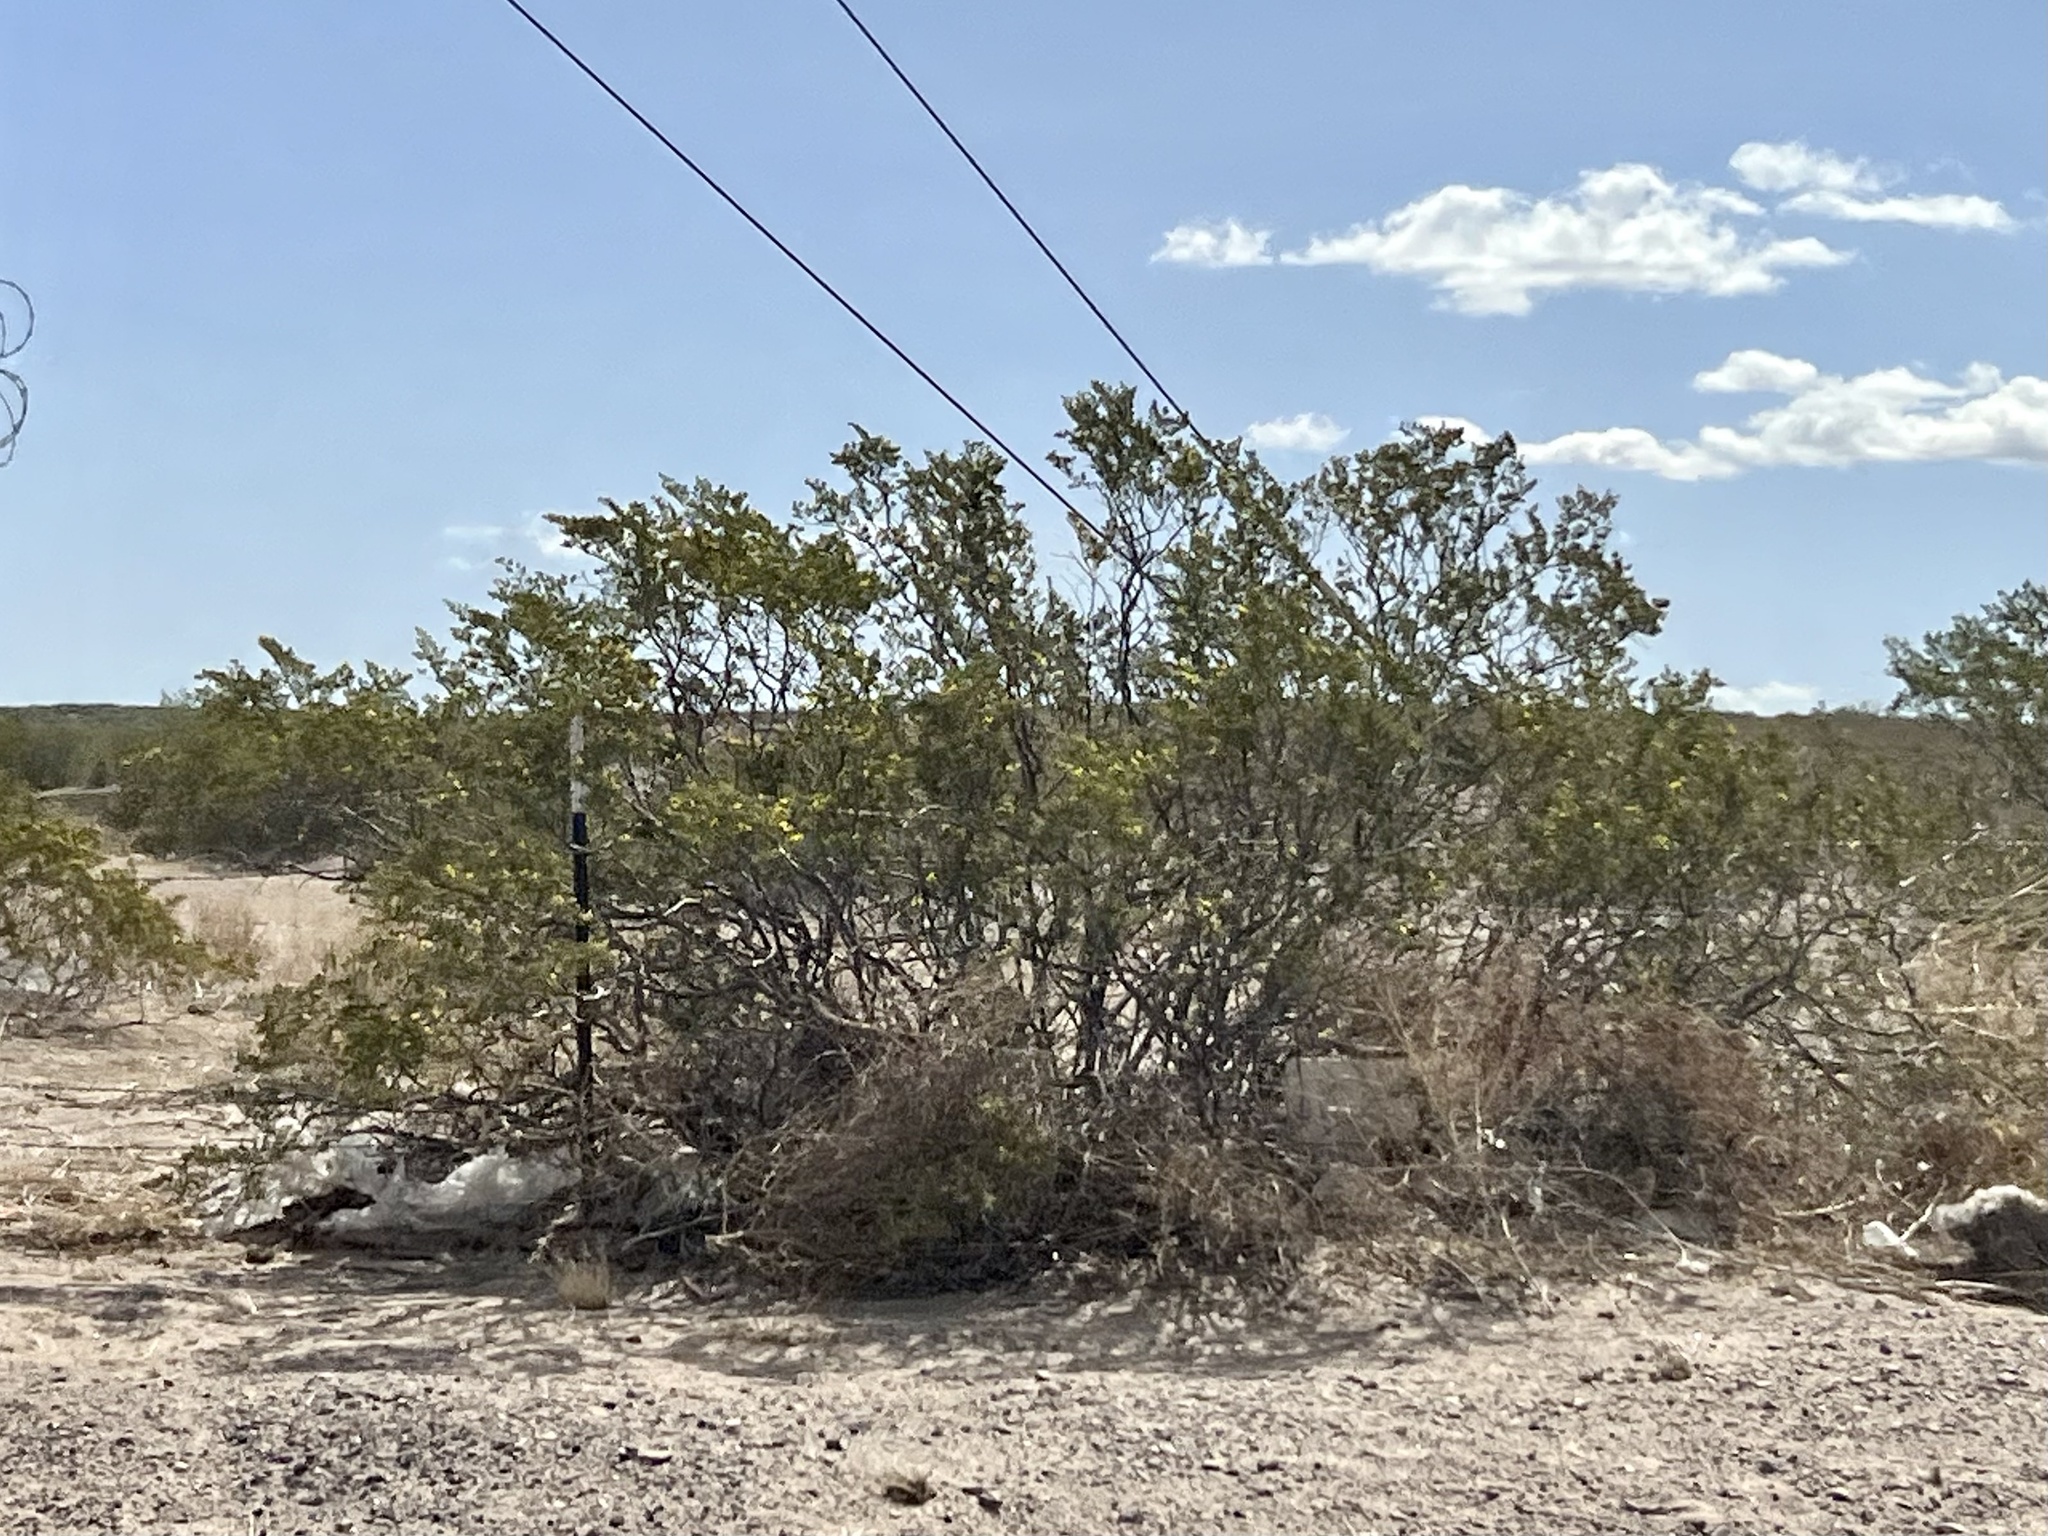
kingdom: Plantae
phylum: Tracheophyta
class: Magnoliopsida
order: Zygophyllales
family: Zygophyllaceae
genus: Larrea
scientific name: Larrea tridentata
